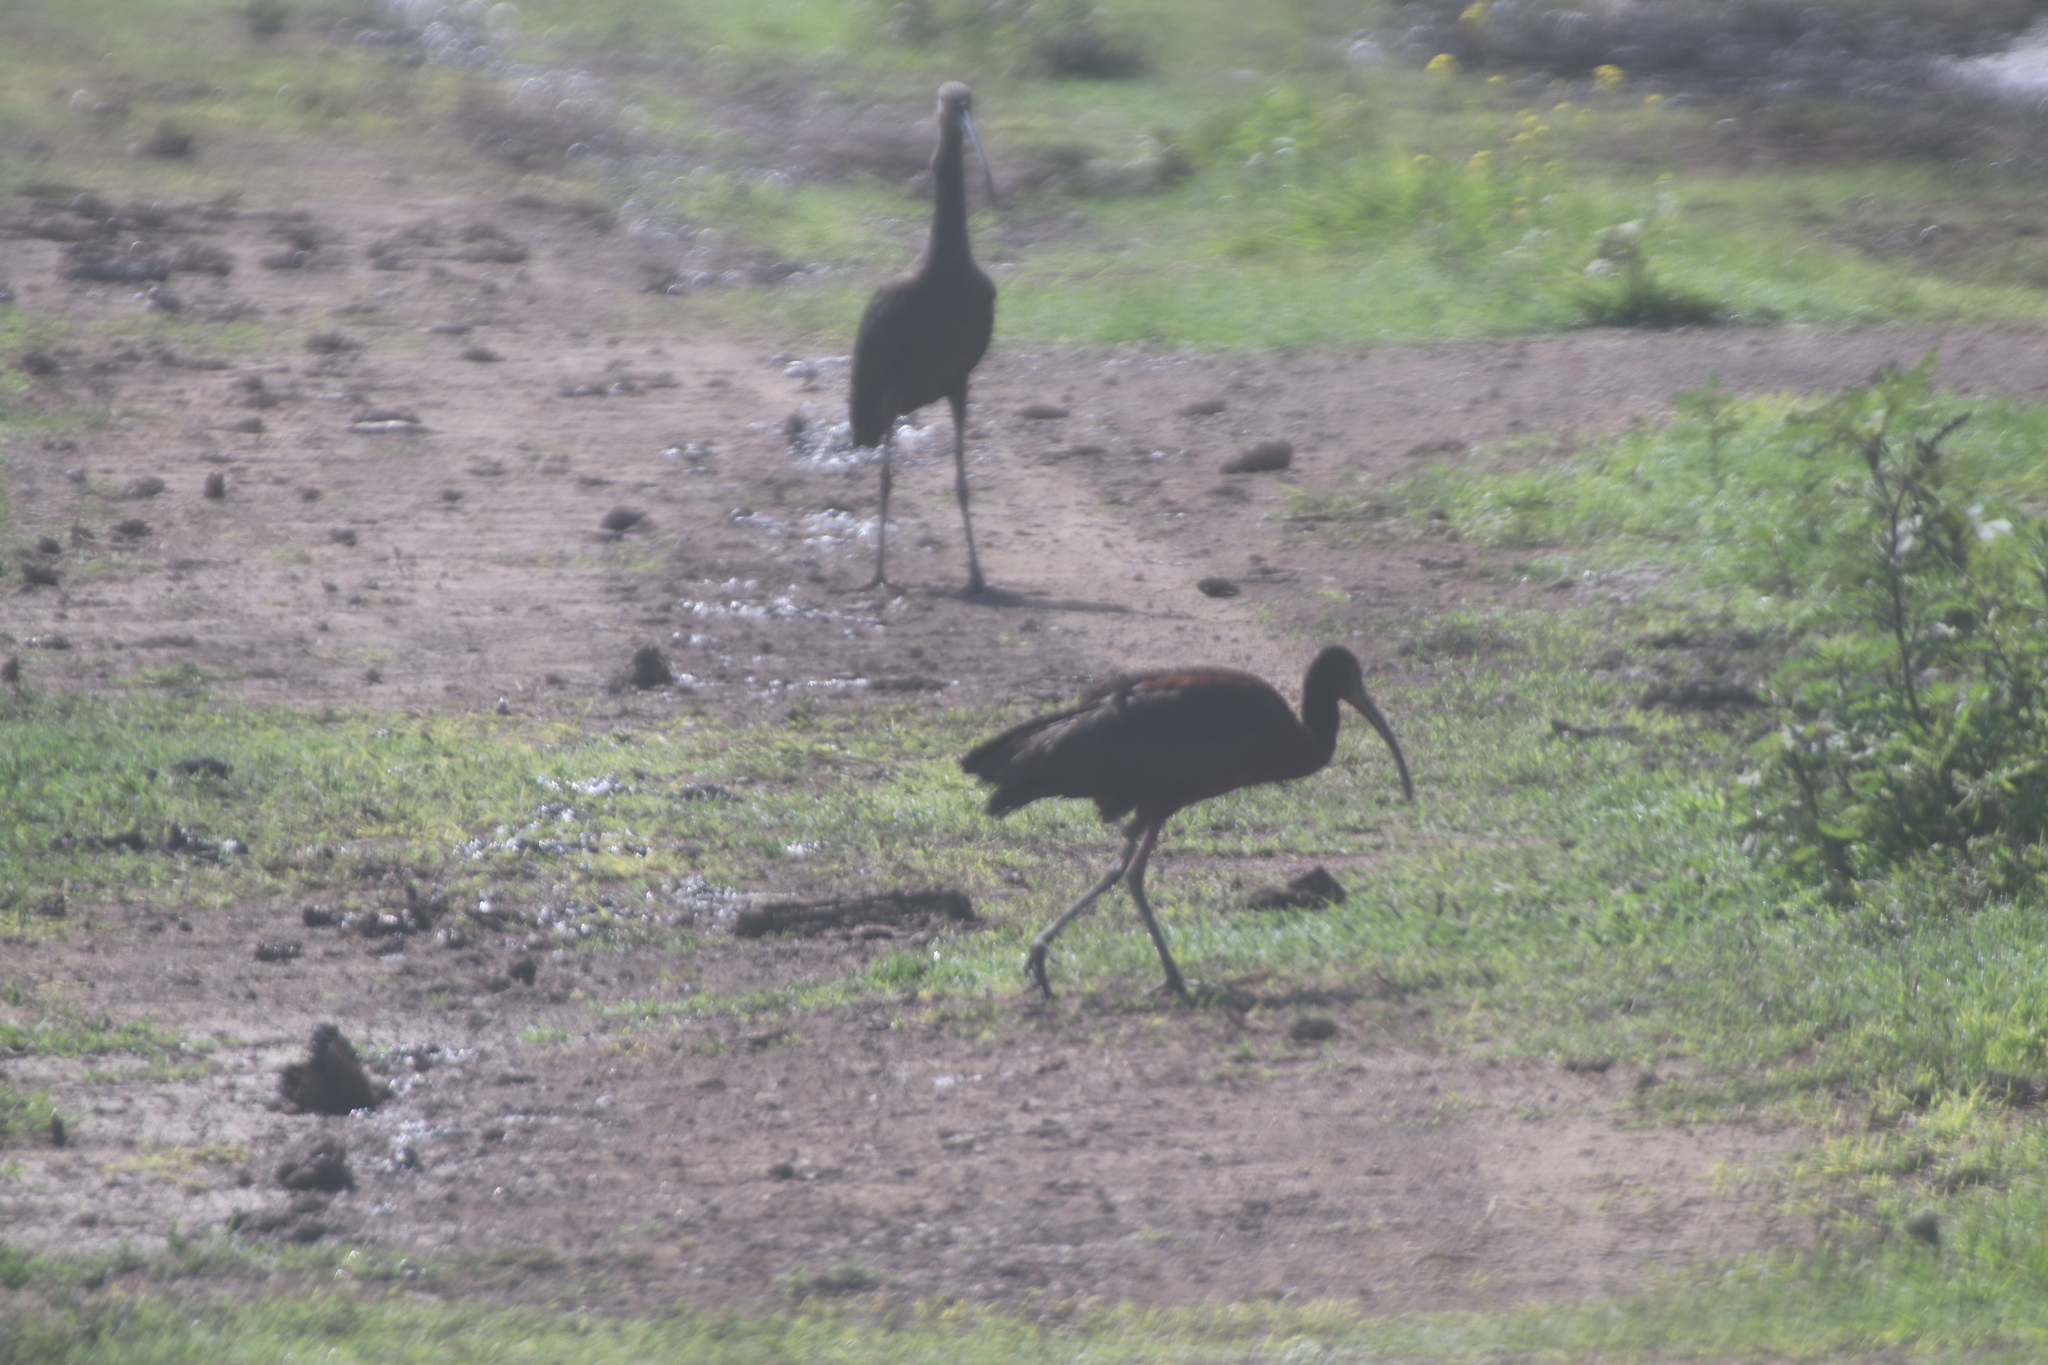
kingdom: Animalia
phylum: Chordata
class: Aves
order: Pelecaniformes
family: Threskiornithidae
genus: Plegadis
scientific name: Plegadis chihi
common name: White-faced ibis
